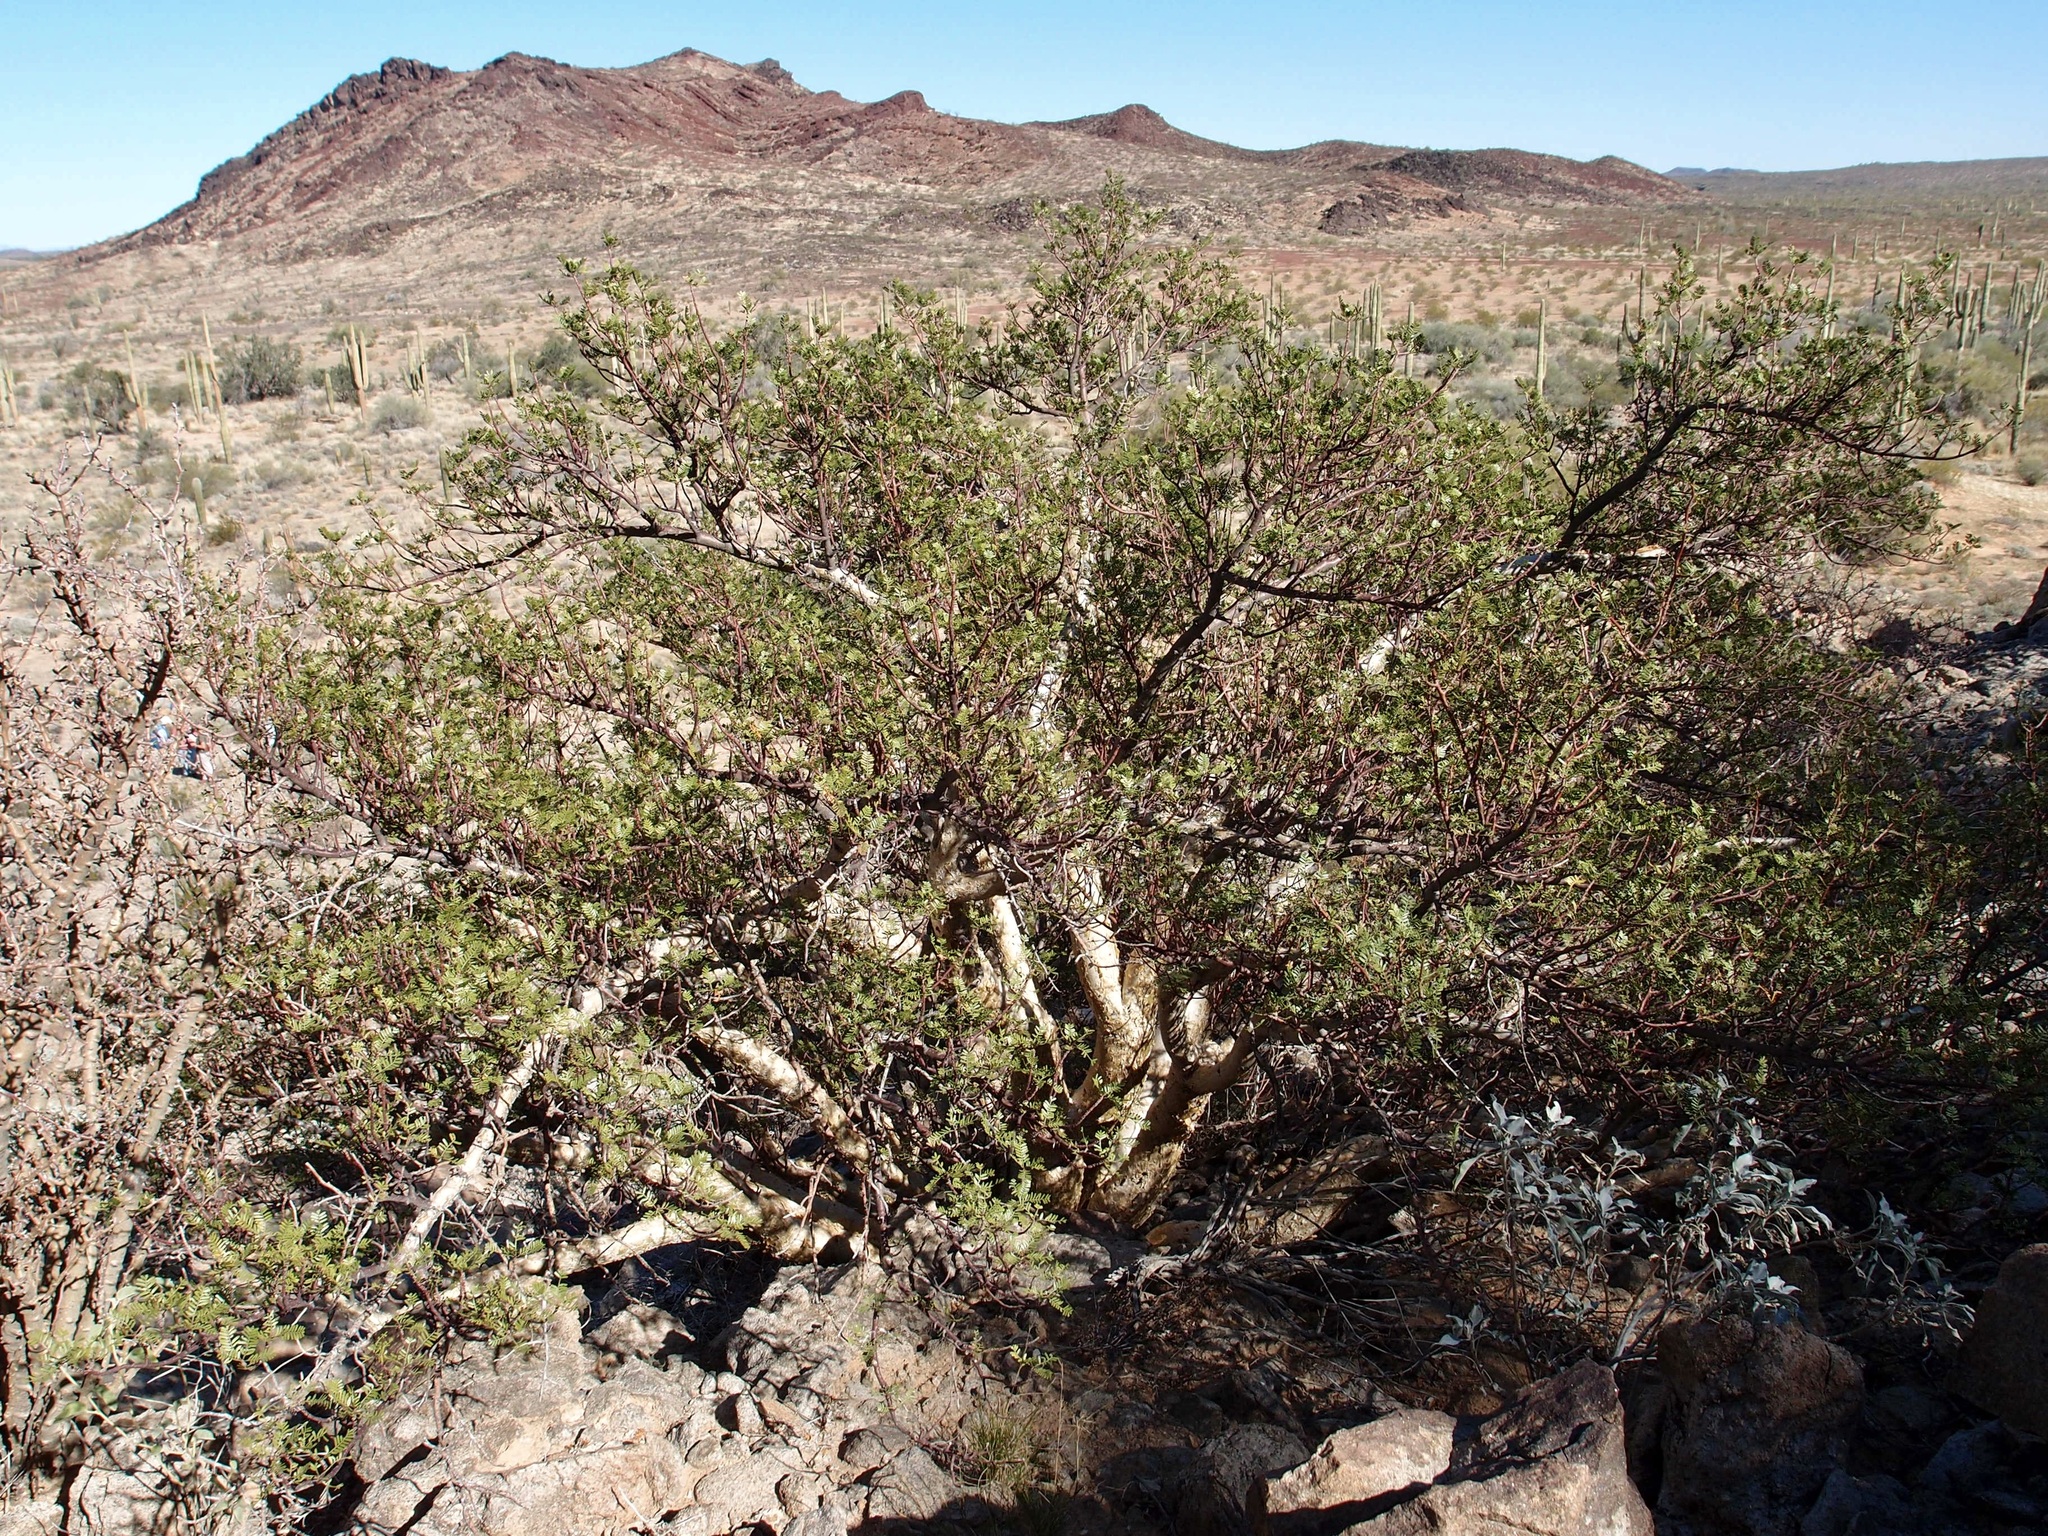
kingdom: Plantae
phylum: Tracheophyta
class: Magnoliopsida
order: Sapindales
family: Burseraceae
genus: Bursera
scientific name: Bursera microphylla
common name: Elephant tree
